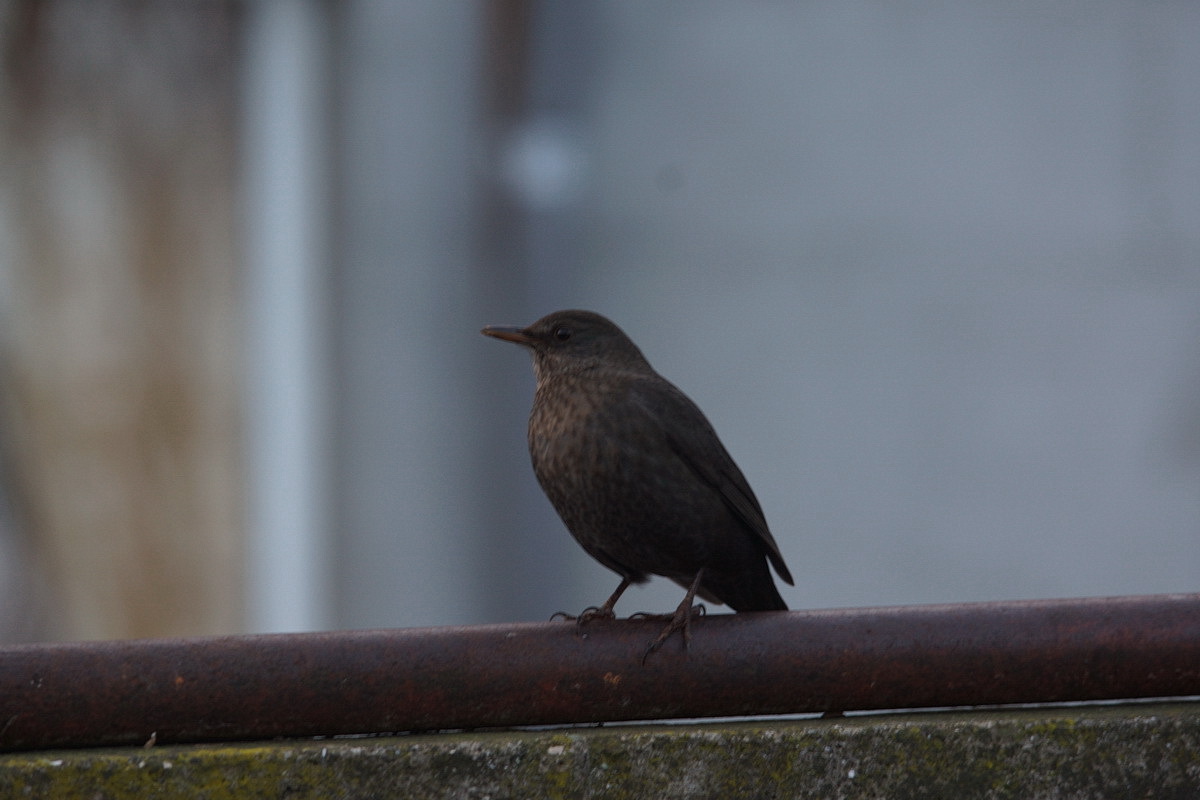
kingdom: Animalia
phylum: Chordata
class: Aves
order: Passeriformes
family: Turdidae
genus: Turdus
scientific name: Turdus merula
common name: Common blackbird
